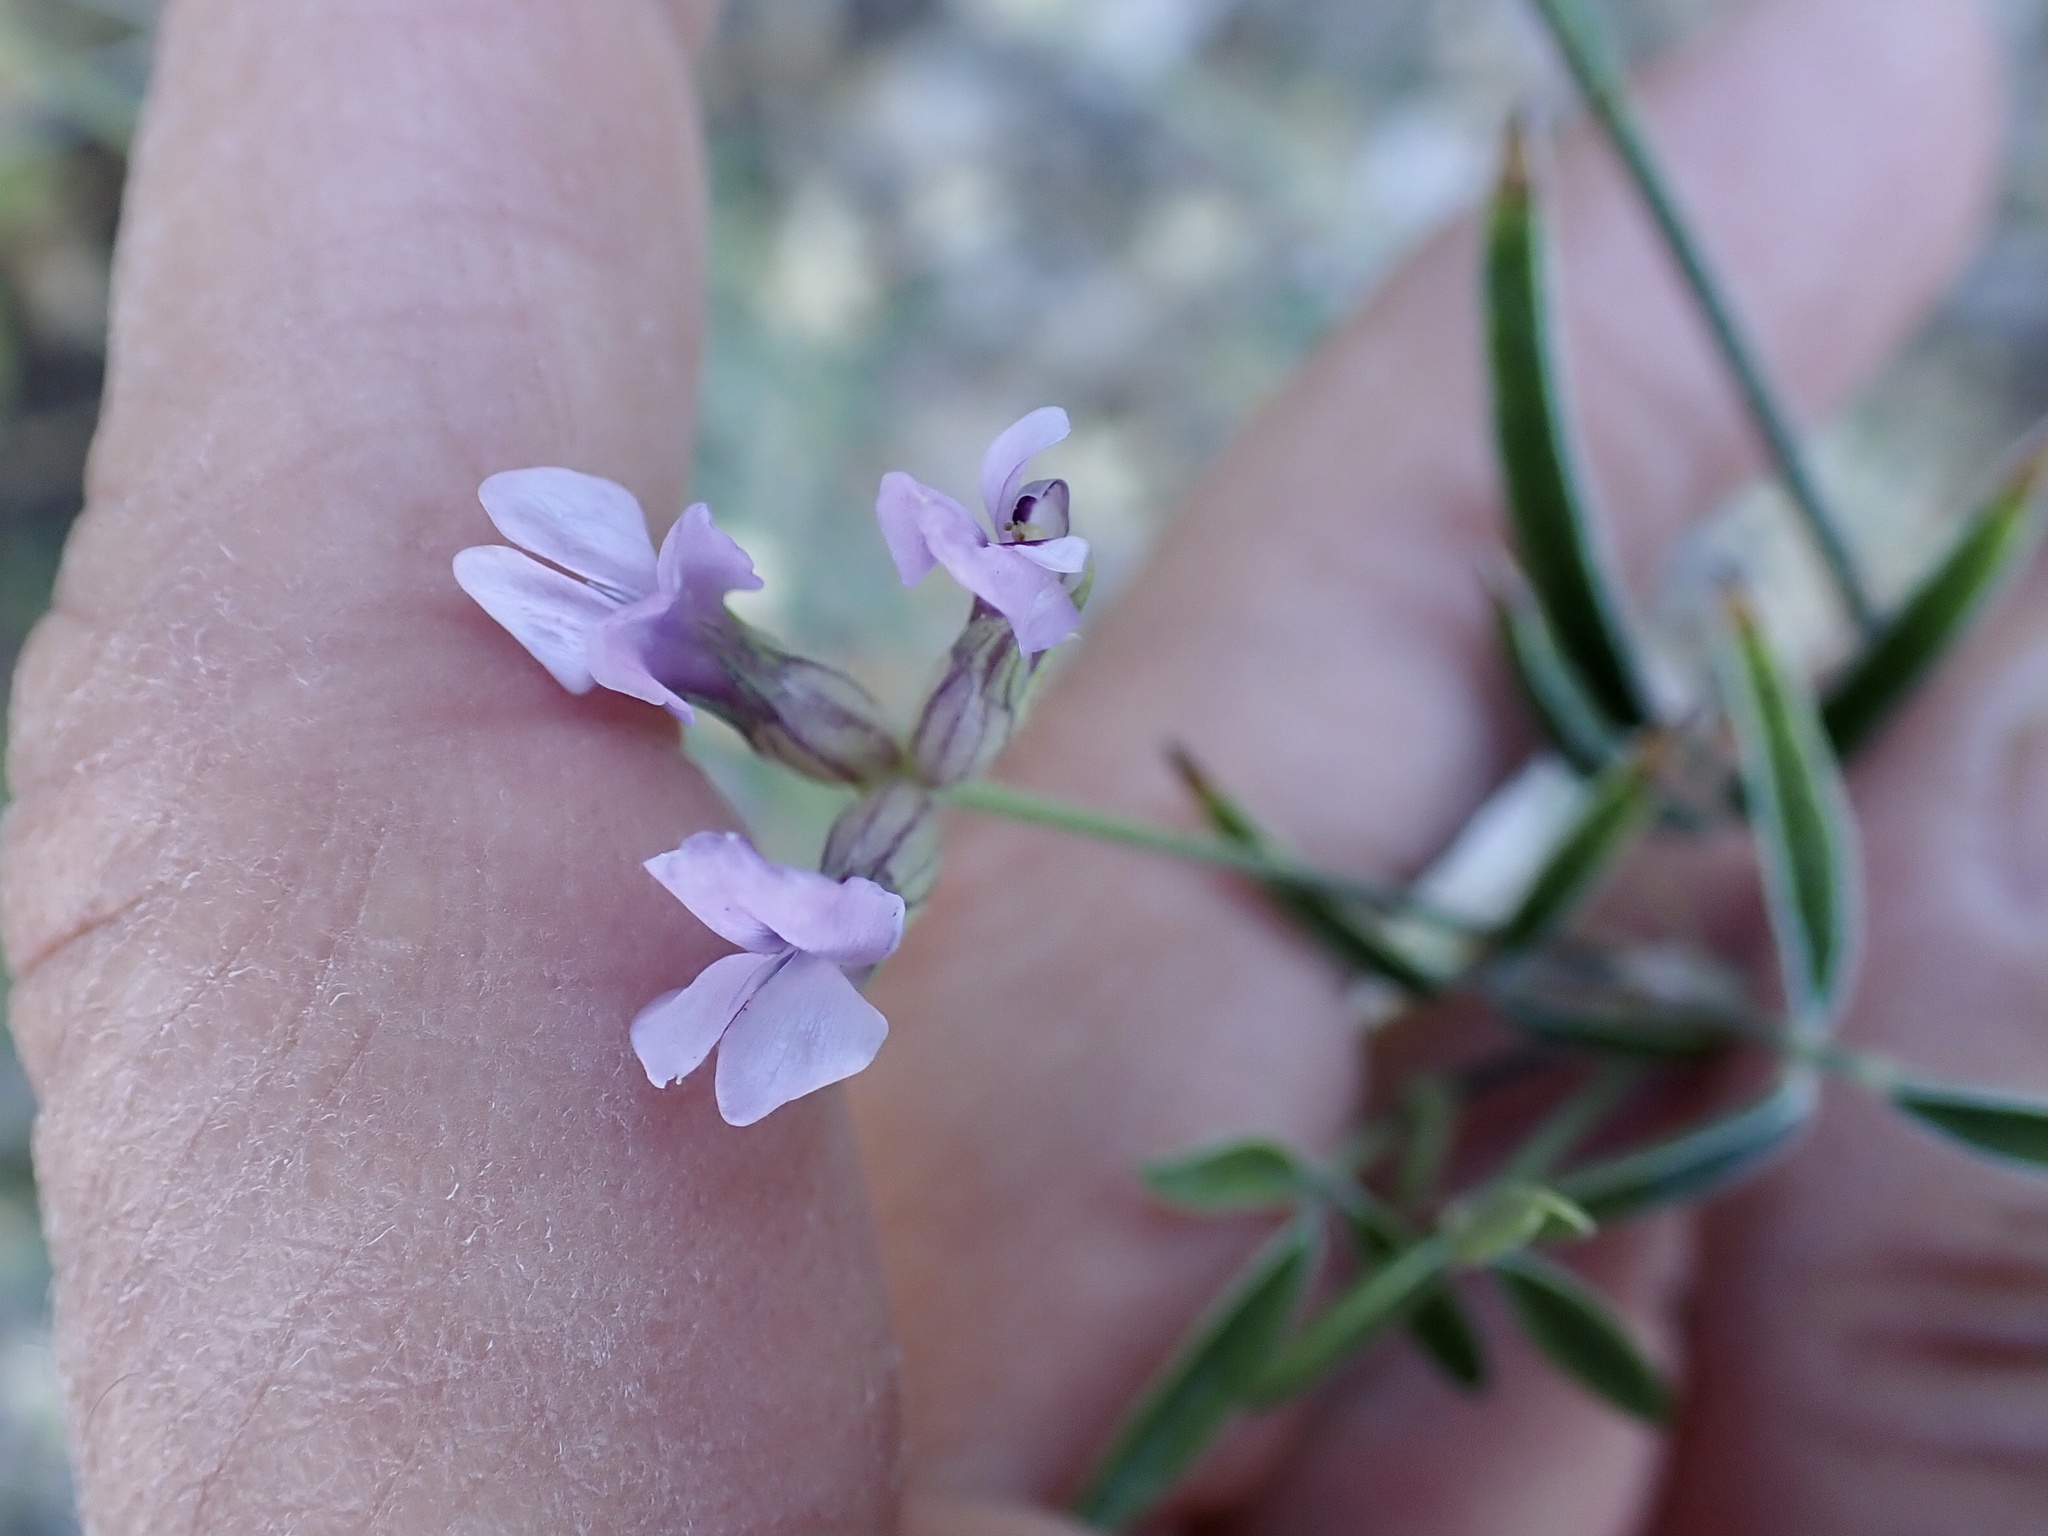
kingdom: Plantae
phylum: Tracheophyta
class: Magnoliopsida
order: Fabales
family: Fabaceae
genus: Bituminaria
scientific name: Bituminaria bituminosa
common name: Arabian pea
